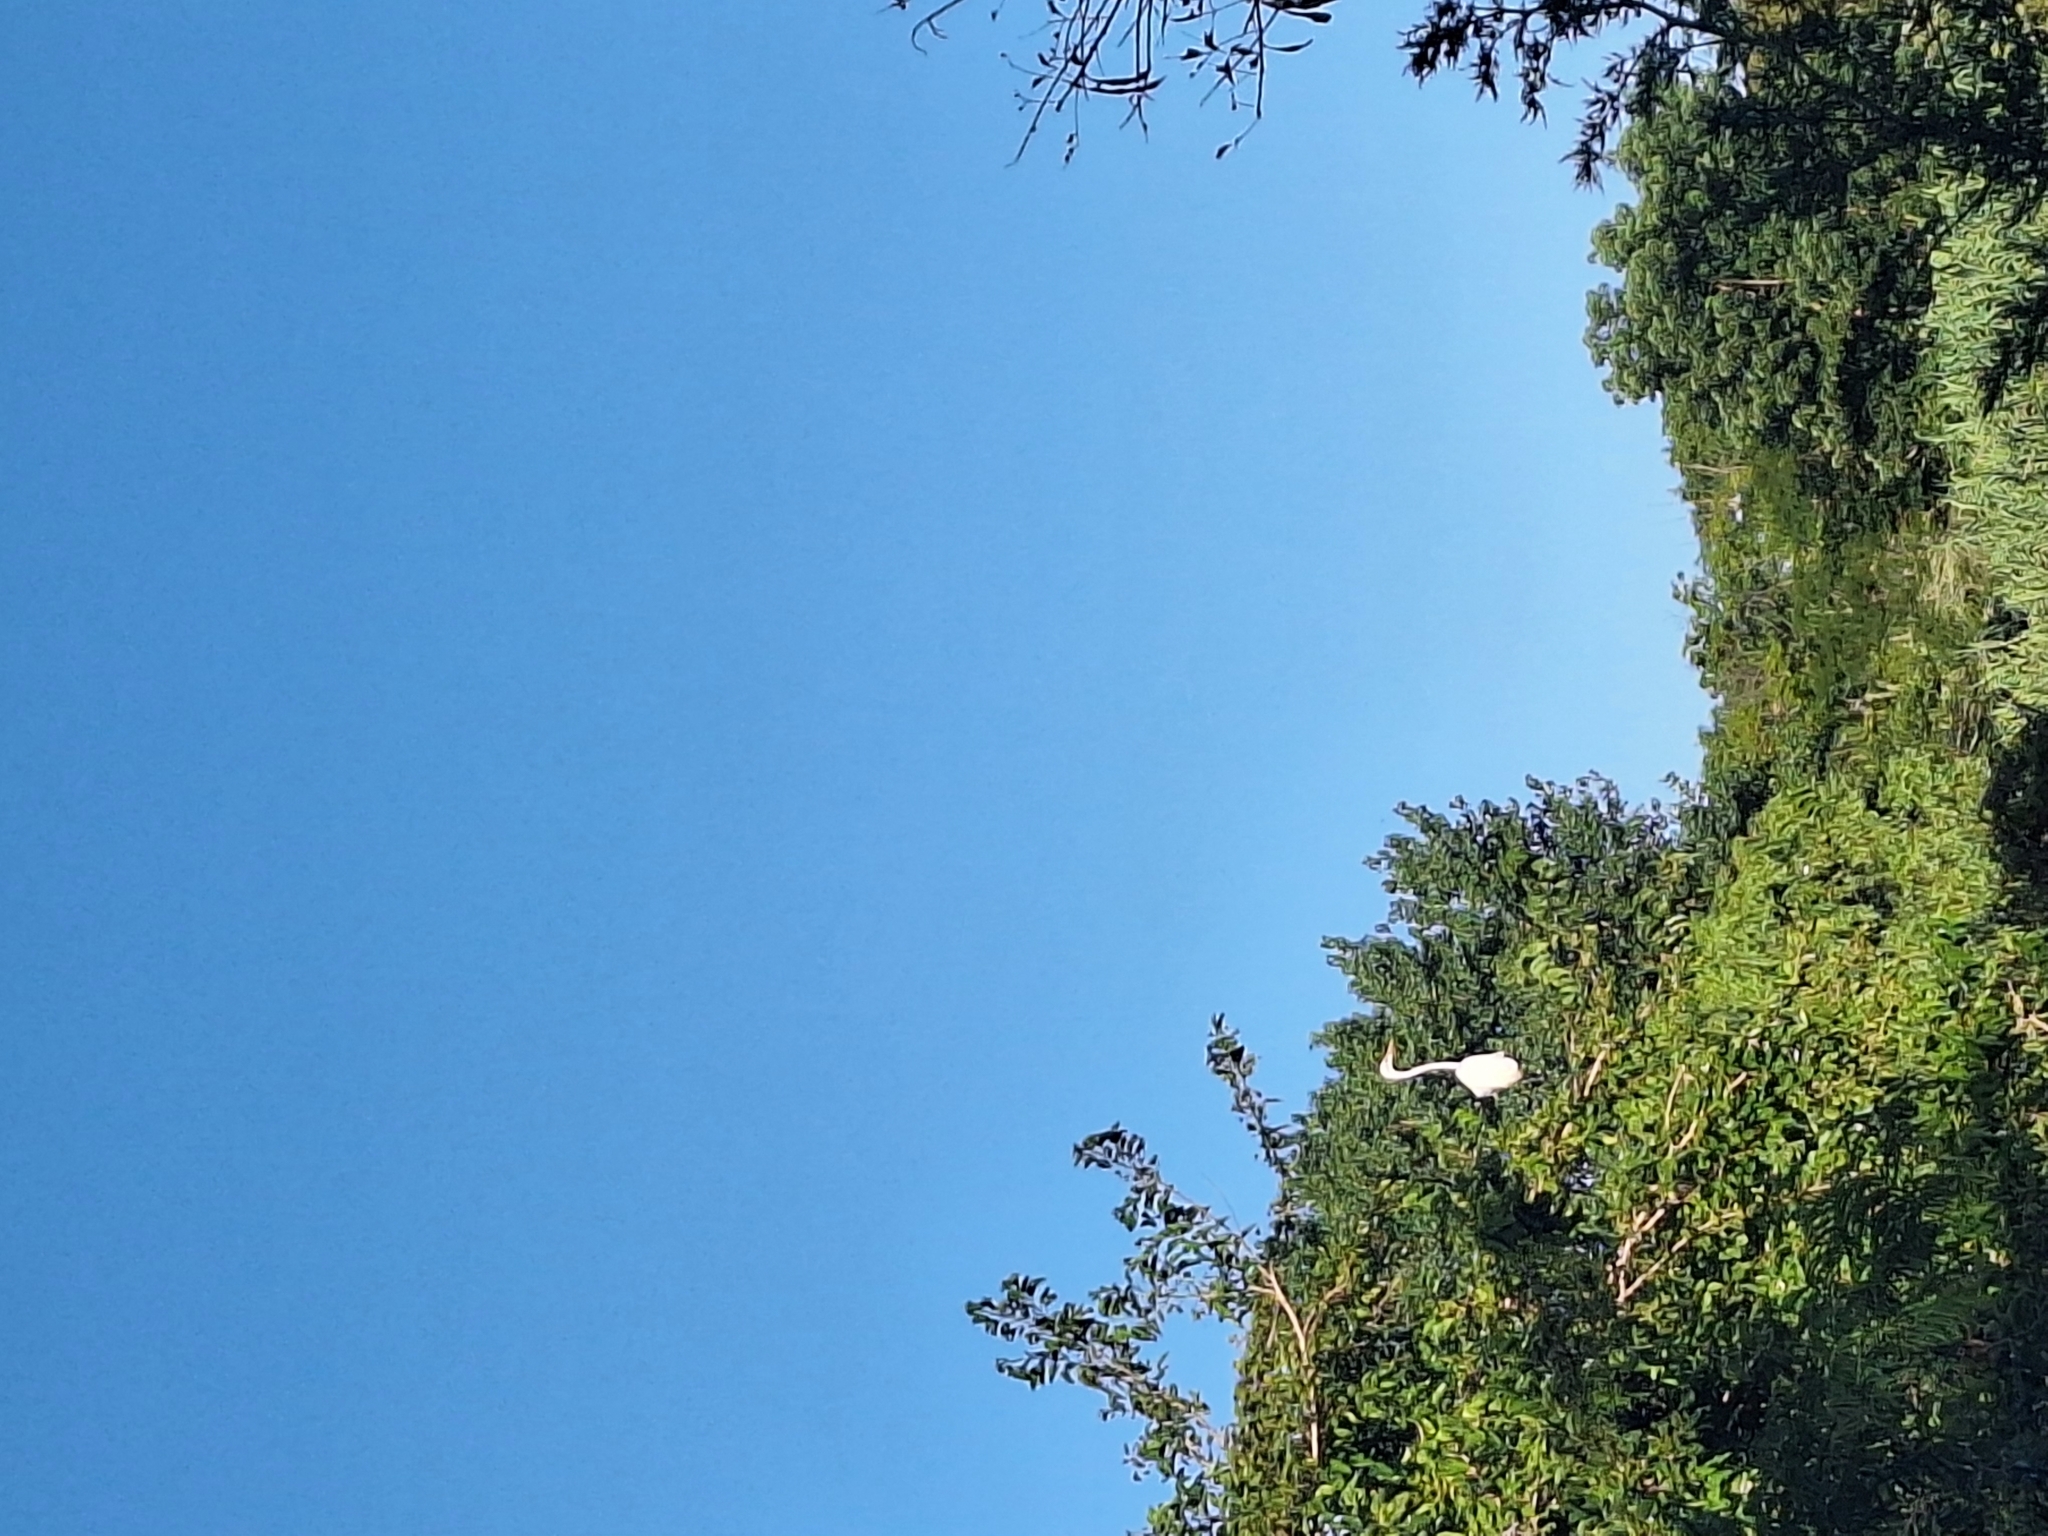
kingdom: Animalia
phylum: Chordata
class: Aves
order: Pelecaniformes
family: Ardeidae
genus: Ardea
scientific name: Ardea alba
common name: Great egret
